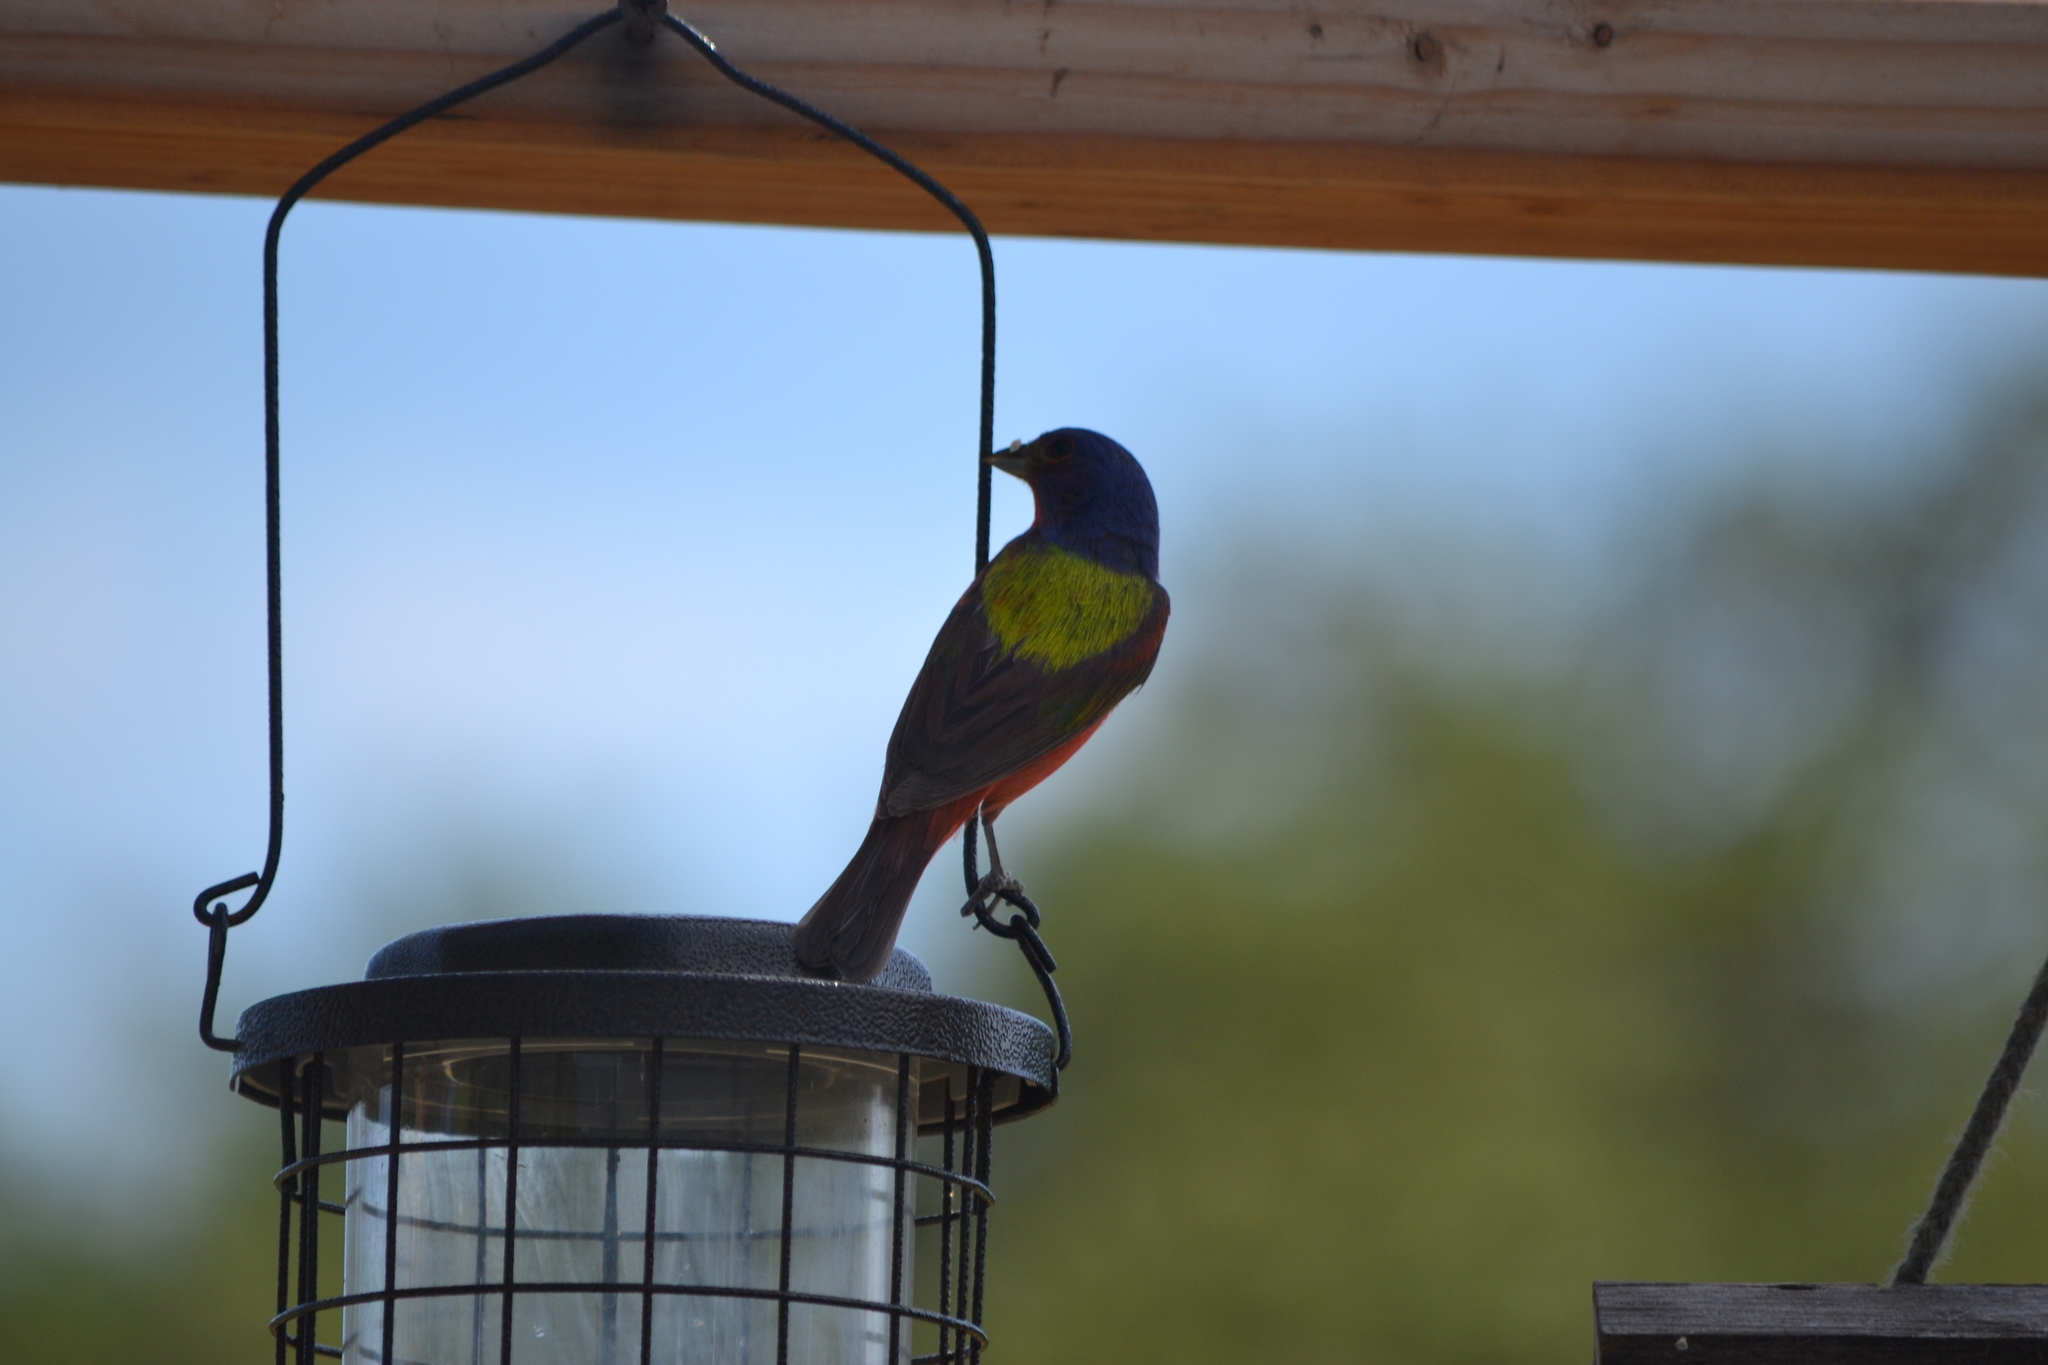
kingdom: Animalia
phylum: Chordata
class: Aves
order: Passeriformes
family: Cardinalidae
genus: Passerina
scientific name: Passerina ciris
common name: Painted bunting
